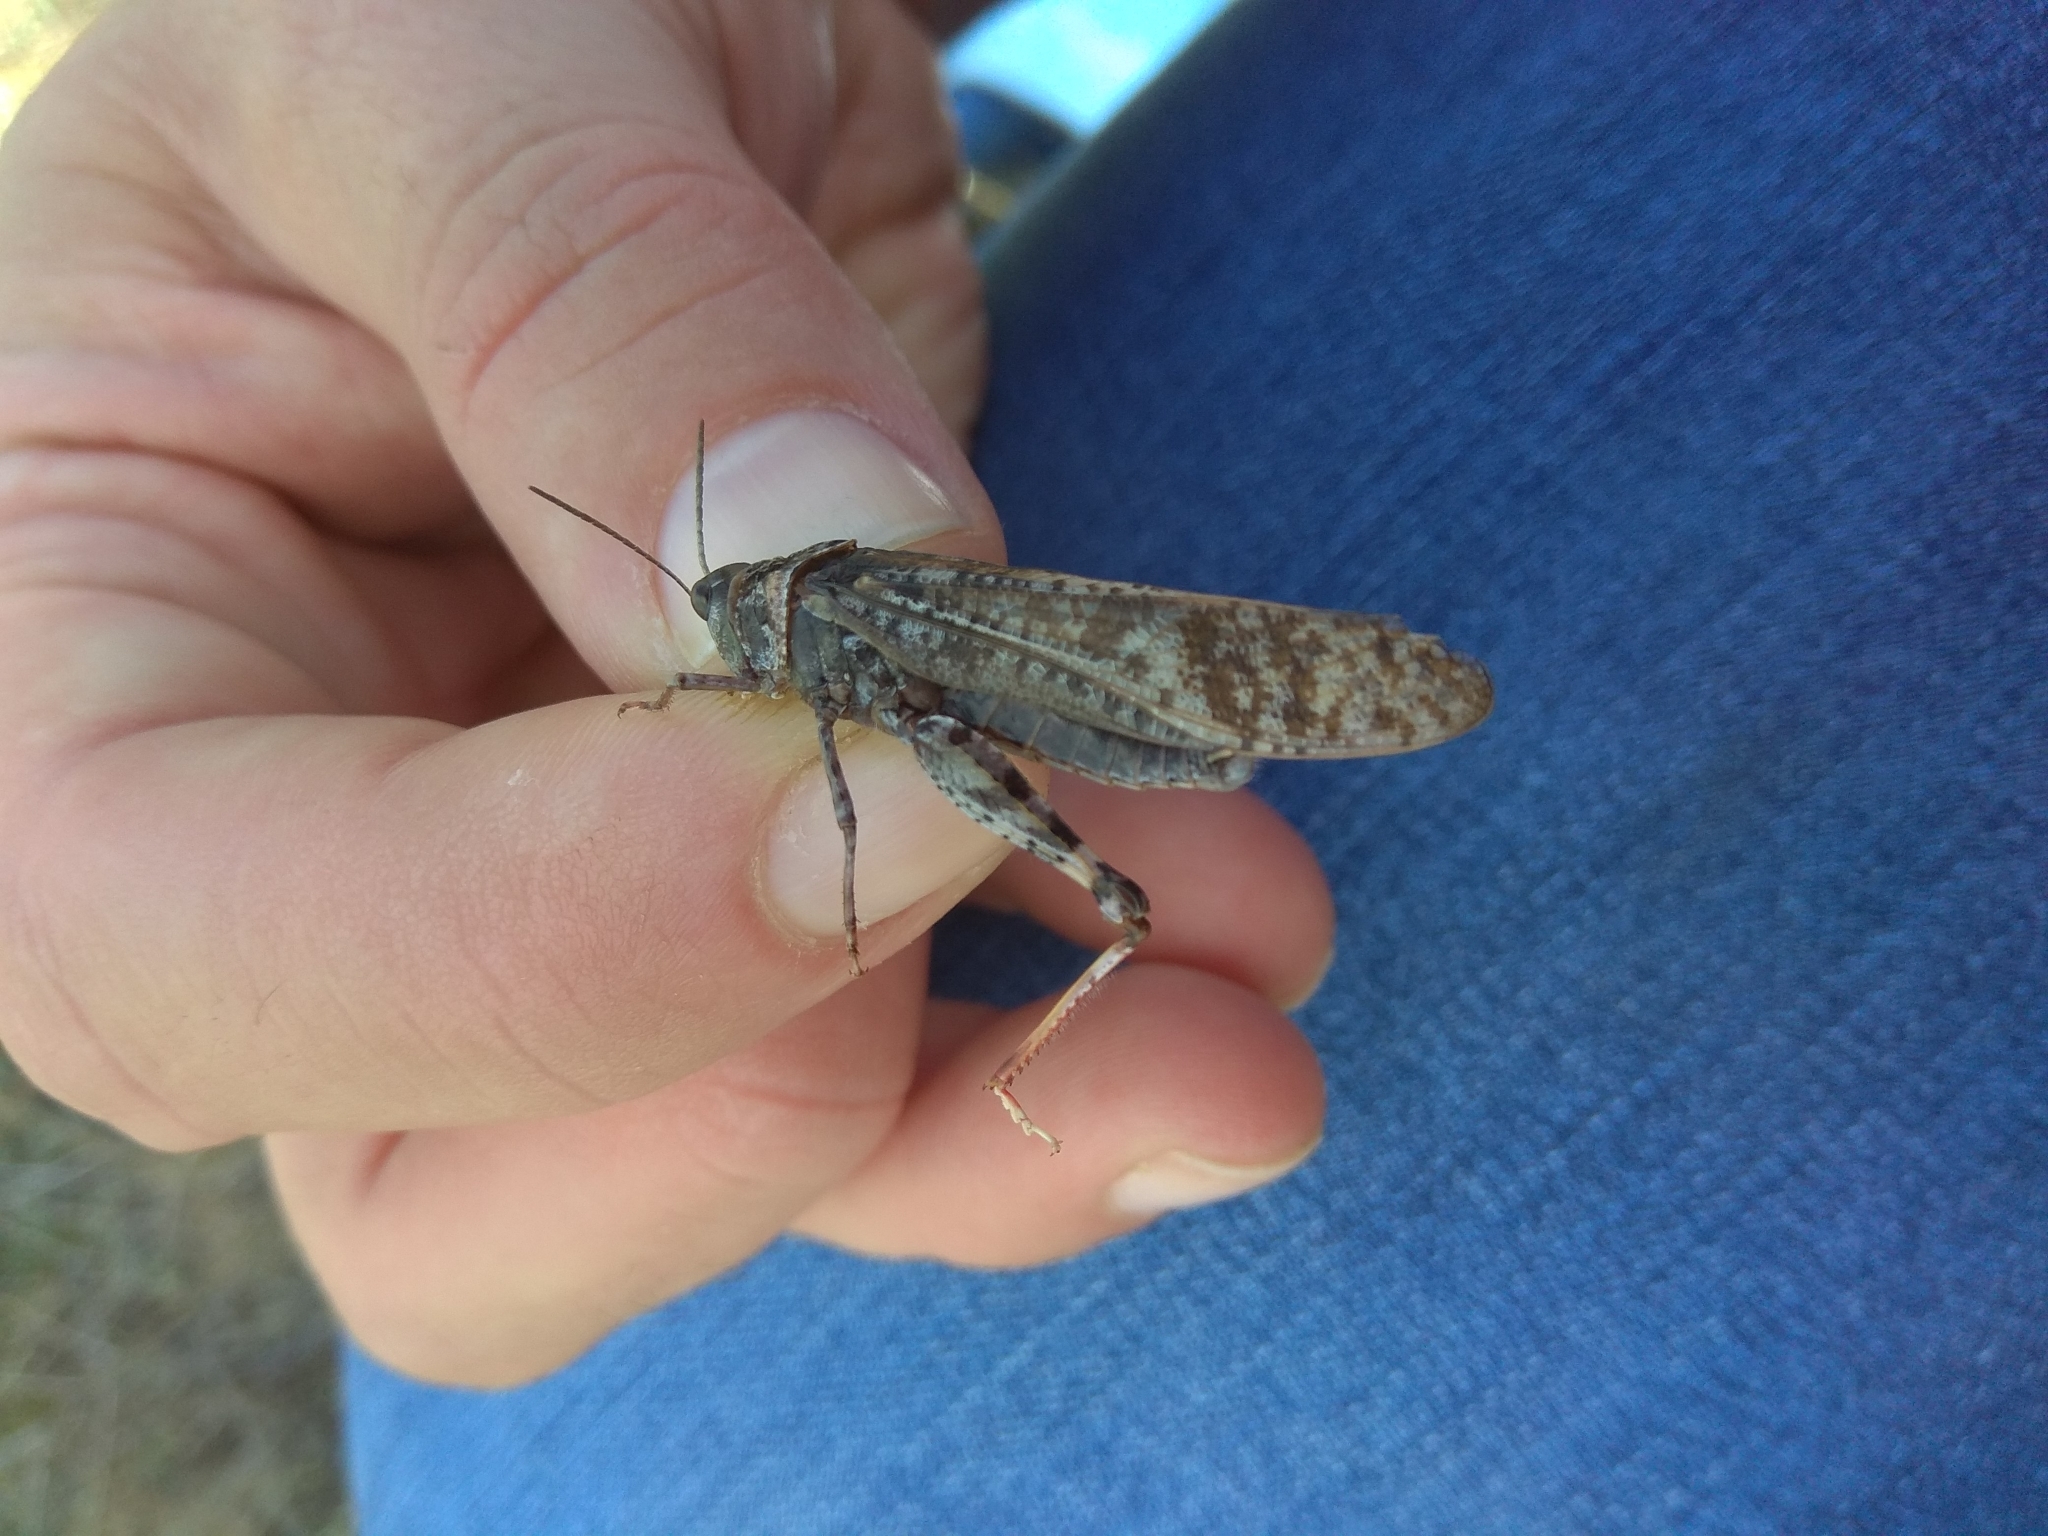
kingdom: Animalia
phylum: Arthropoda
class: Insecta
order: Orthoptera
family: Acrididae
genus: Angaracris
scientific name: Angaracris barabensis
